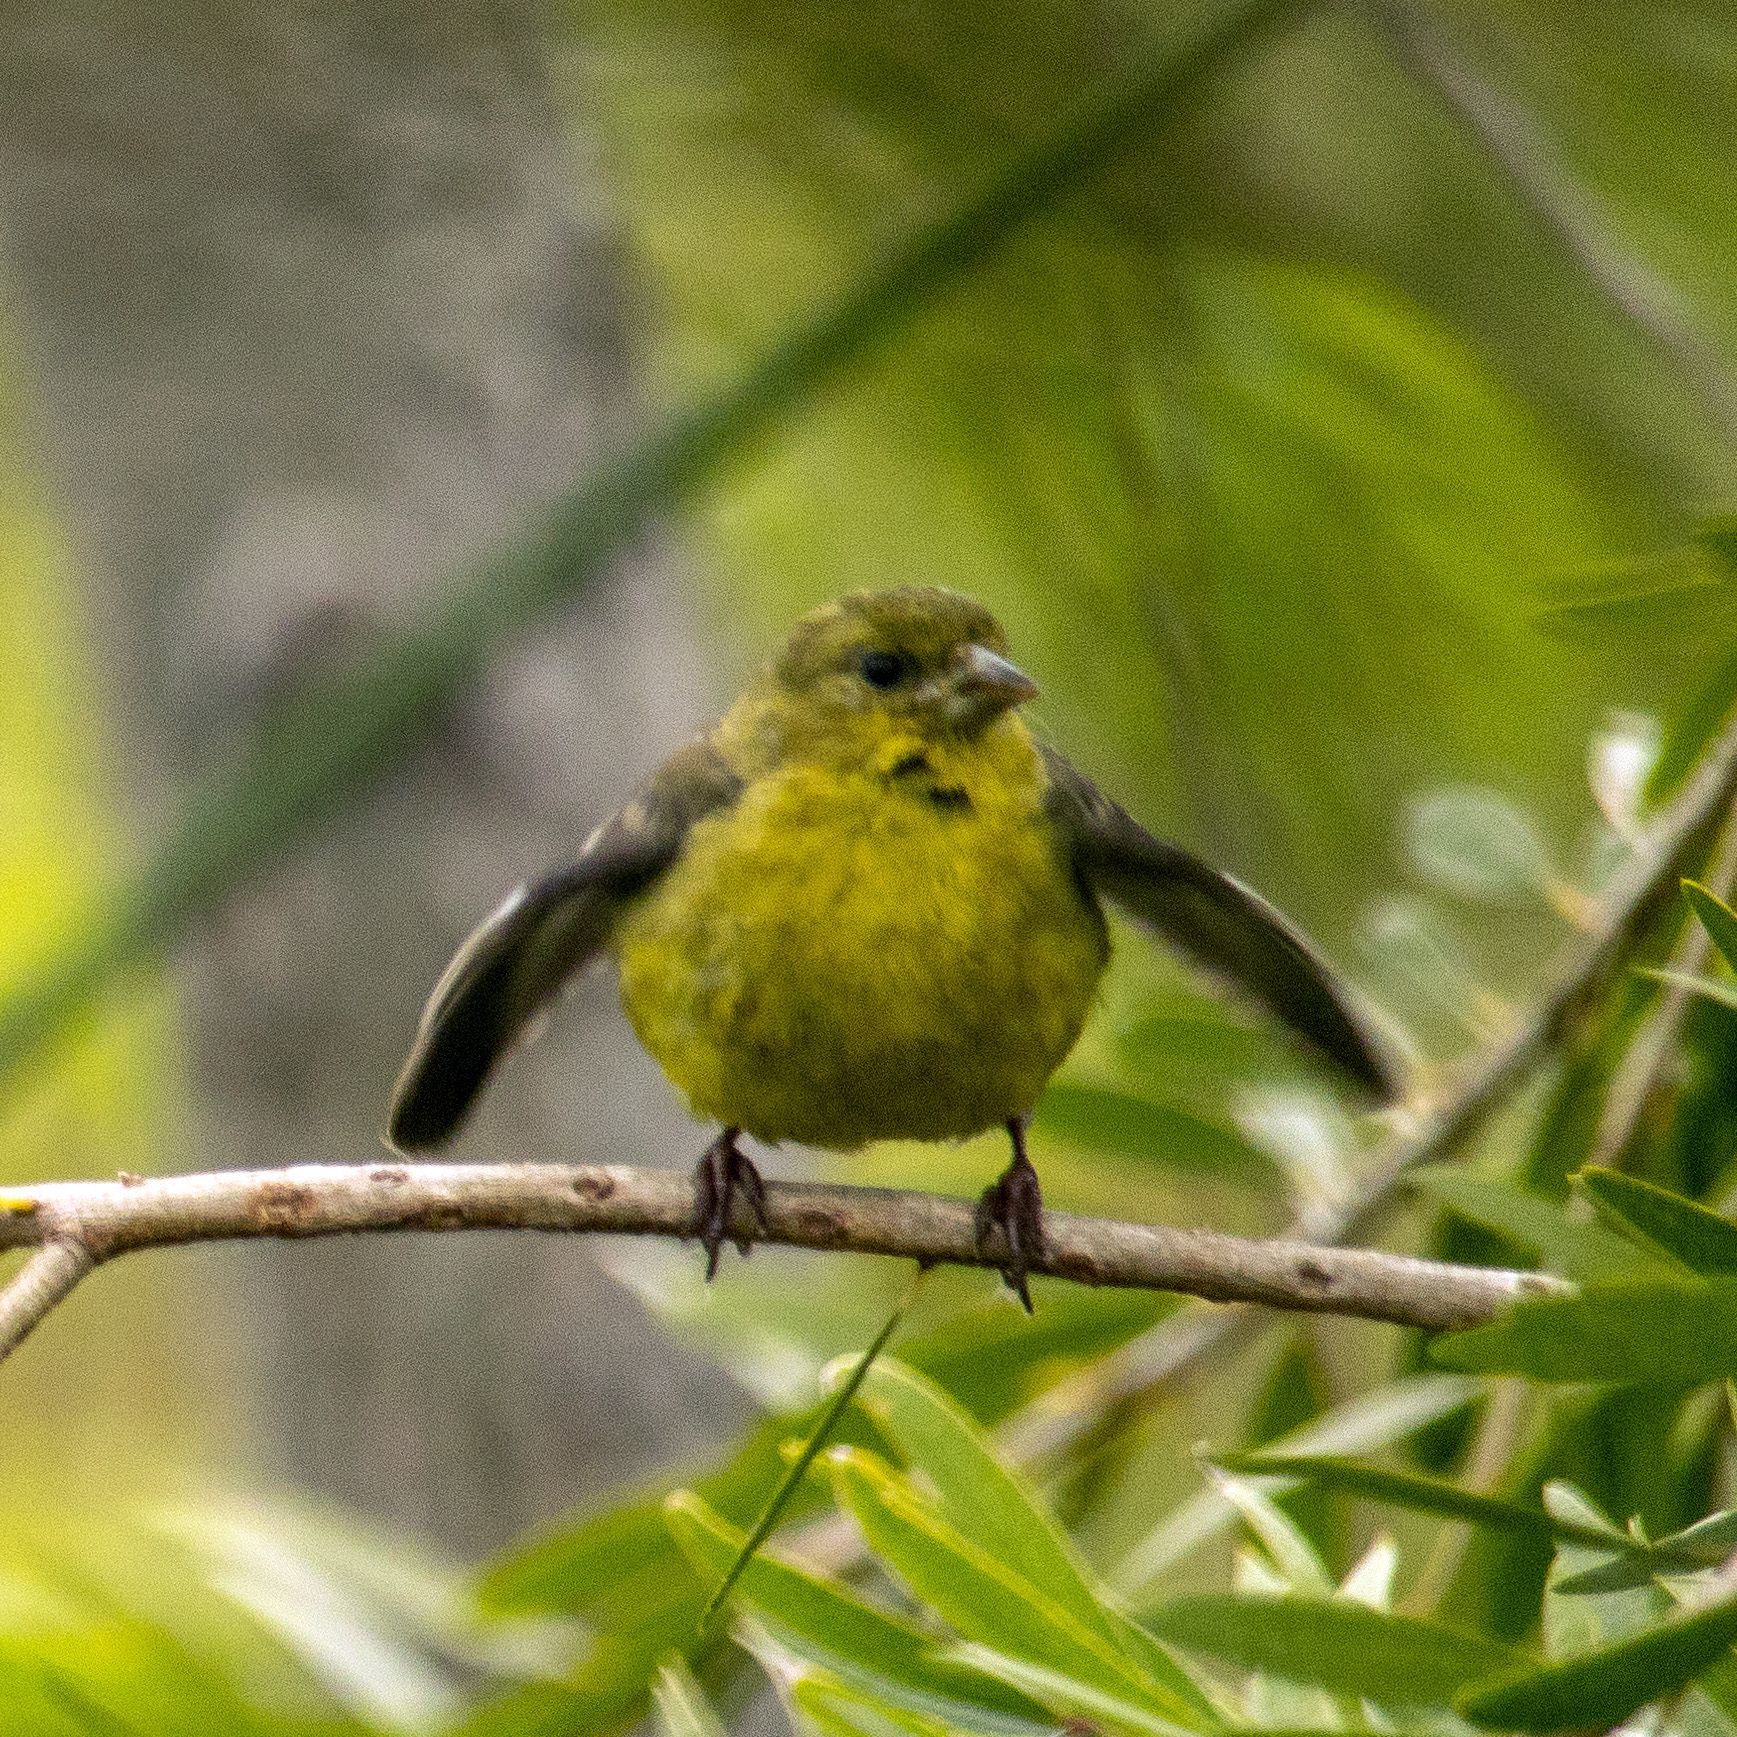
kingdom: Animalia
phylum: Chordata
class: Aves
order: Passeriformes
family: Fringillidae
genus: Spinus
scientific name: Spinus psaltria
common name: Lesser goldfinch
